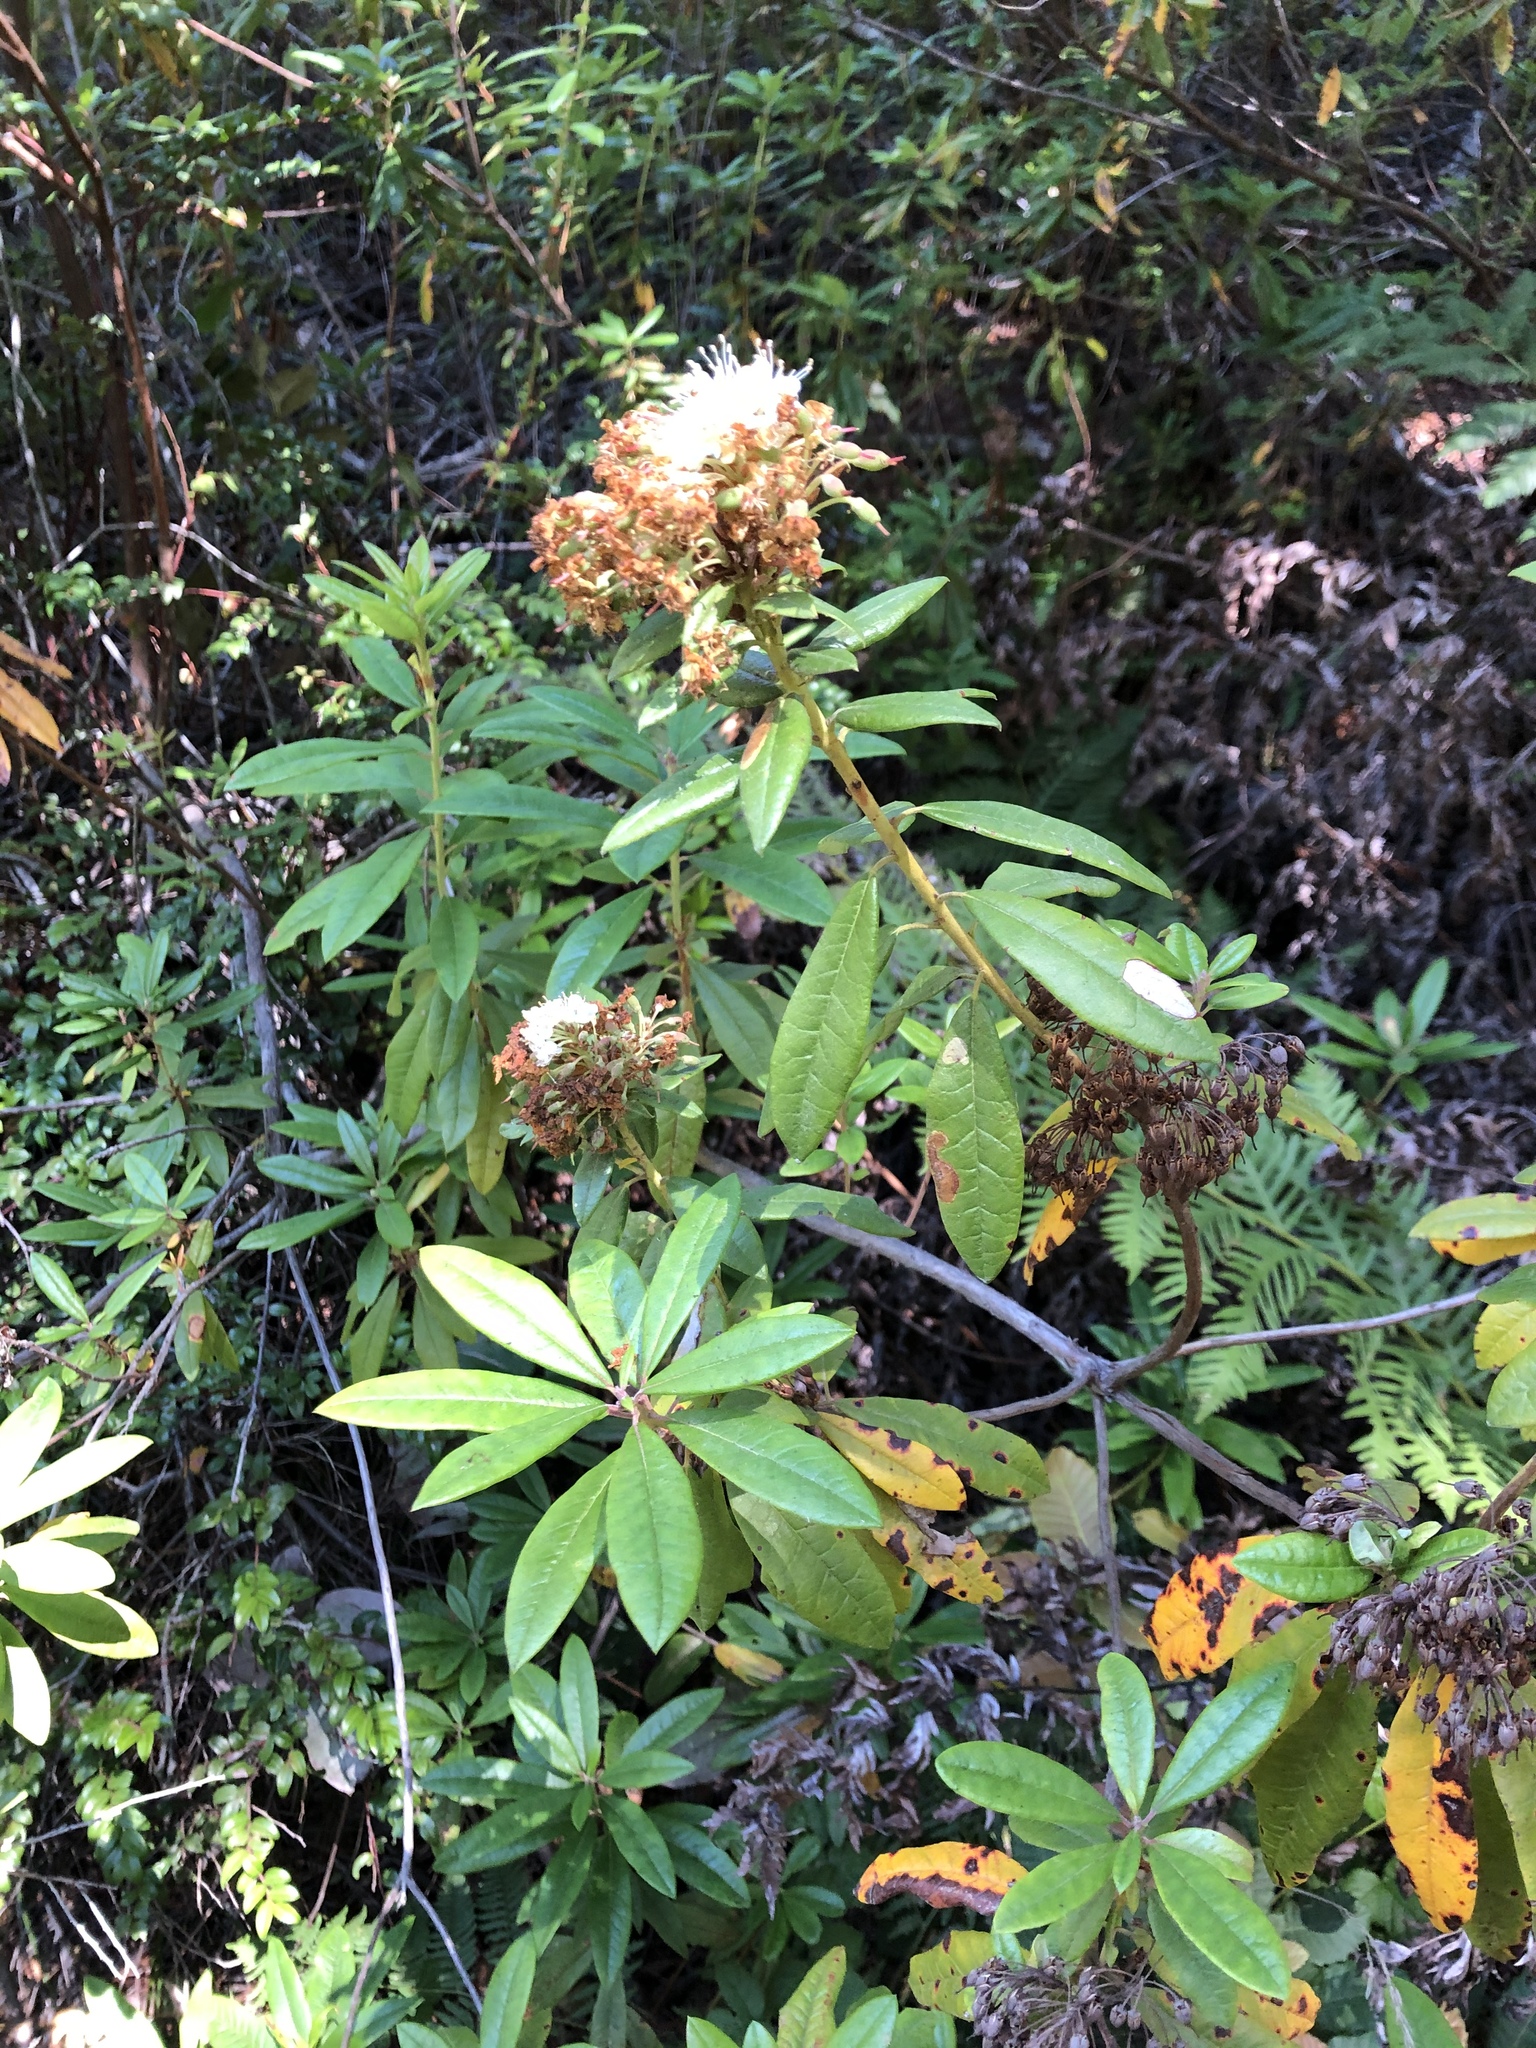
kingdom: Plantae
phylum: Tracheophyta
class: Magnoliopsida
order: Ericales
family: Ericaceae
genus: Rhododendron
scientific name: Rhododendron columbianum
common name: Western labrador tea
